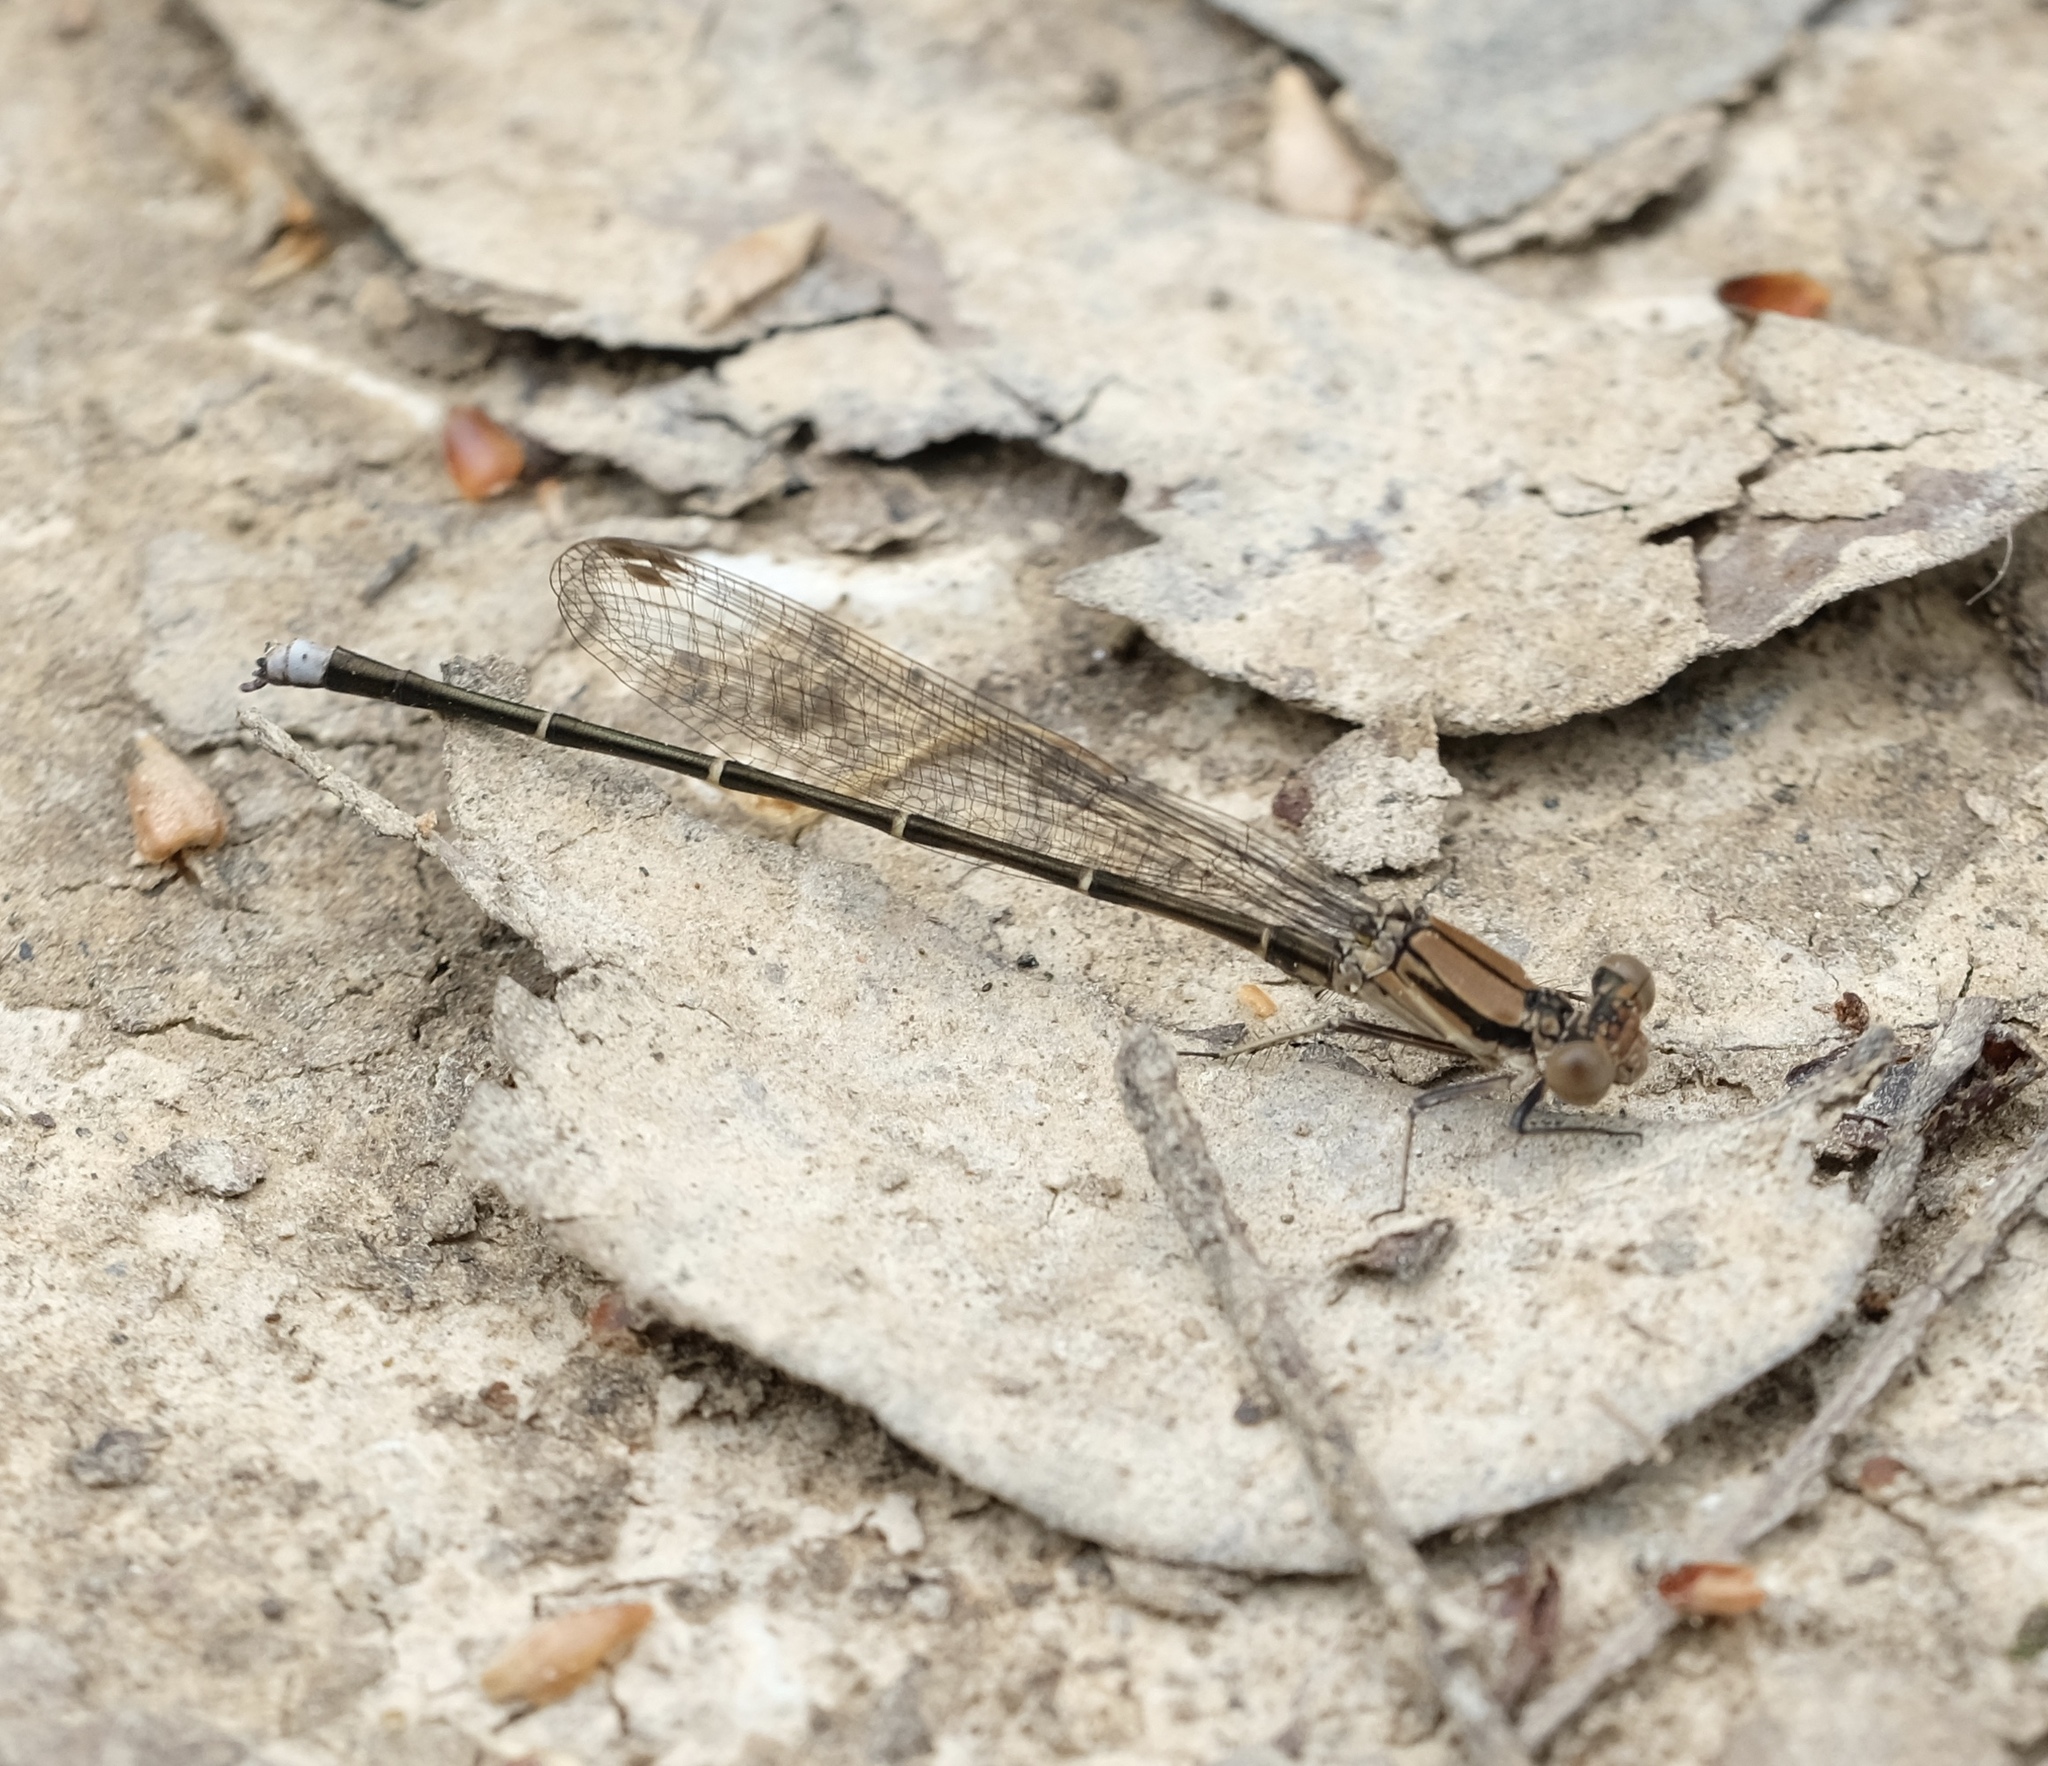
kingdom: Animalia
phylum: Arthropoda
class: Insecta
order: Odonata
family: Coenagrionidae
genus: Argia
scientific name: Argia tibialis
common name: Blue-tipped dancer
